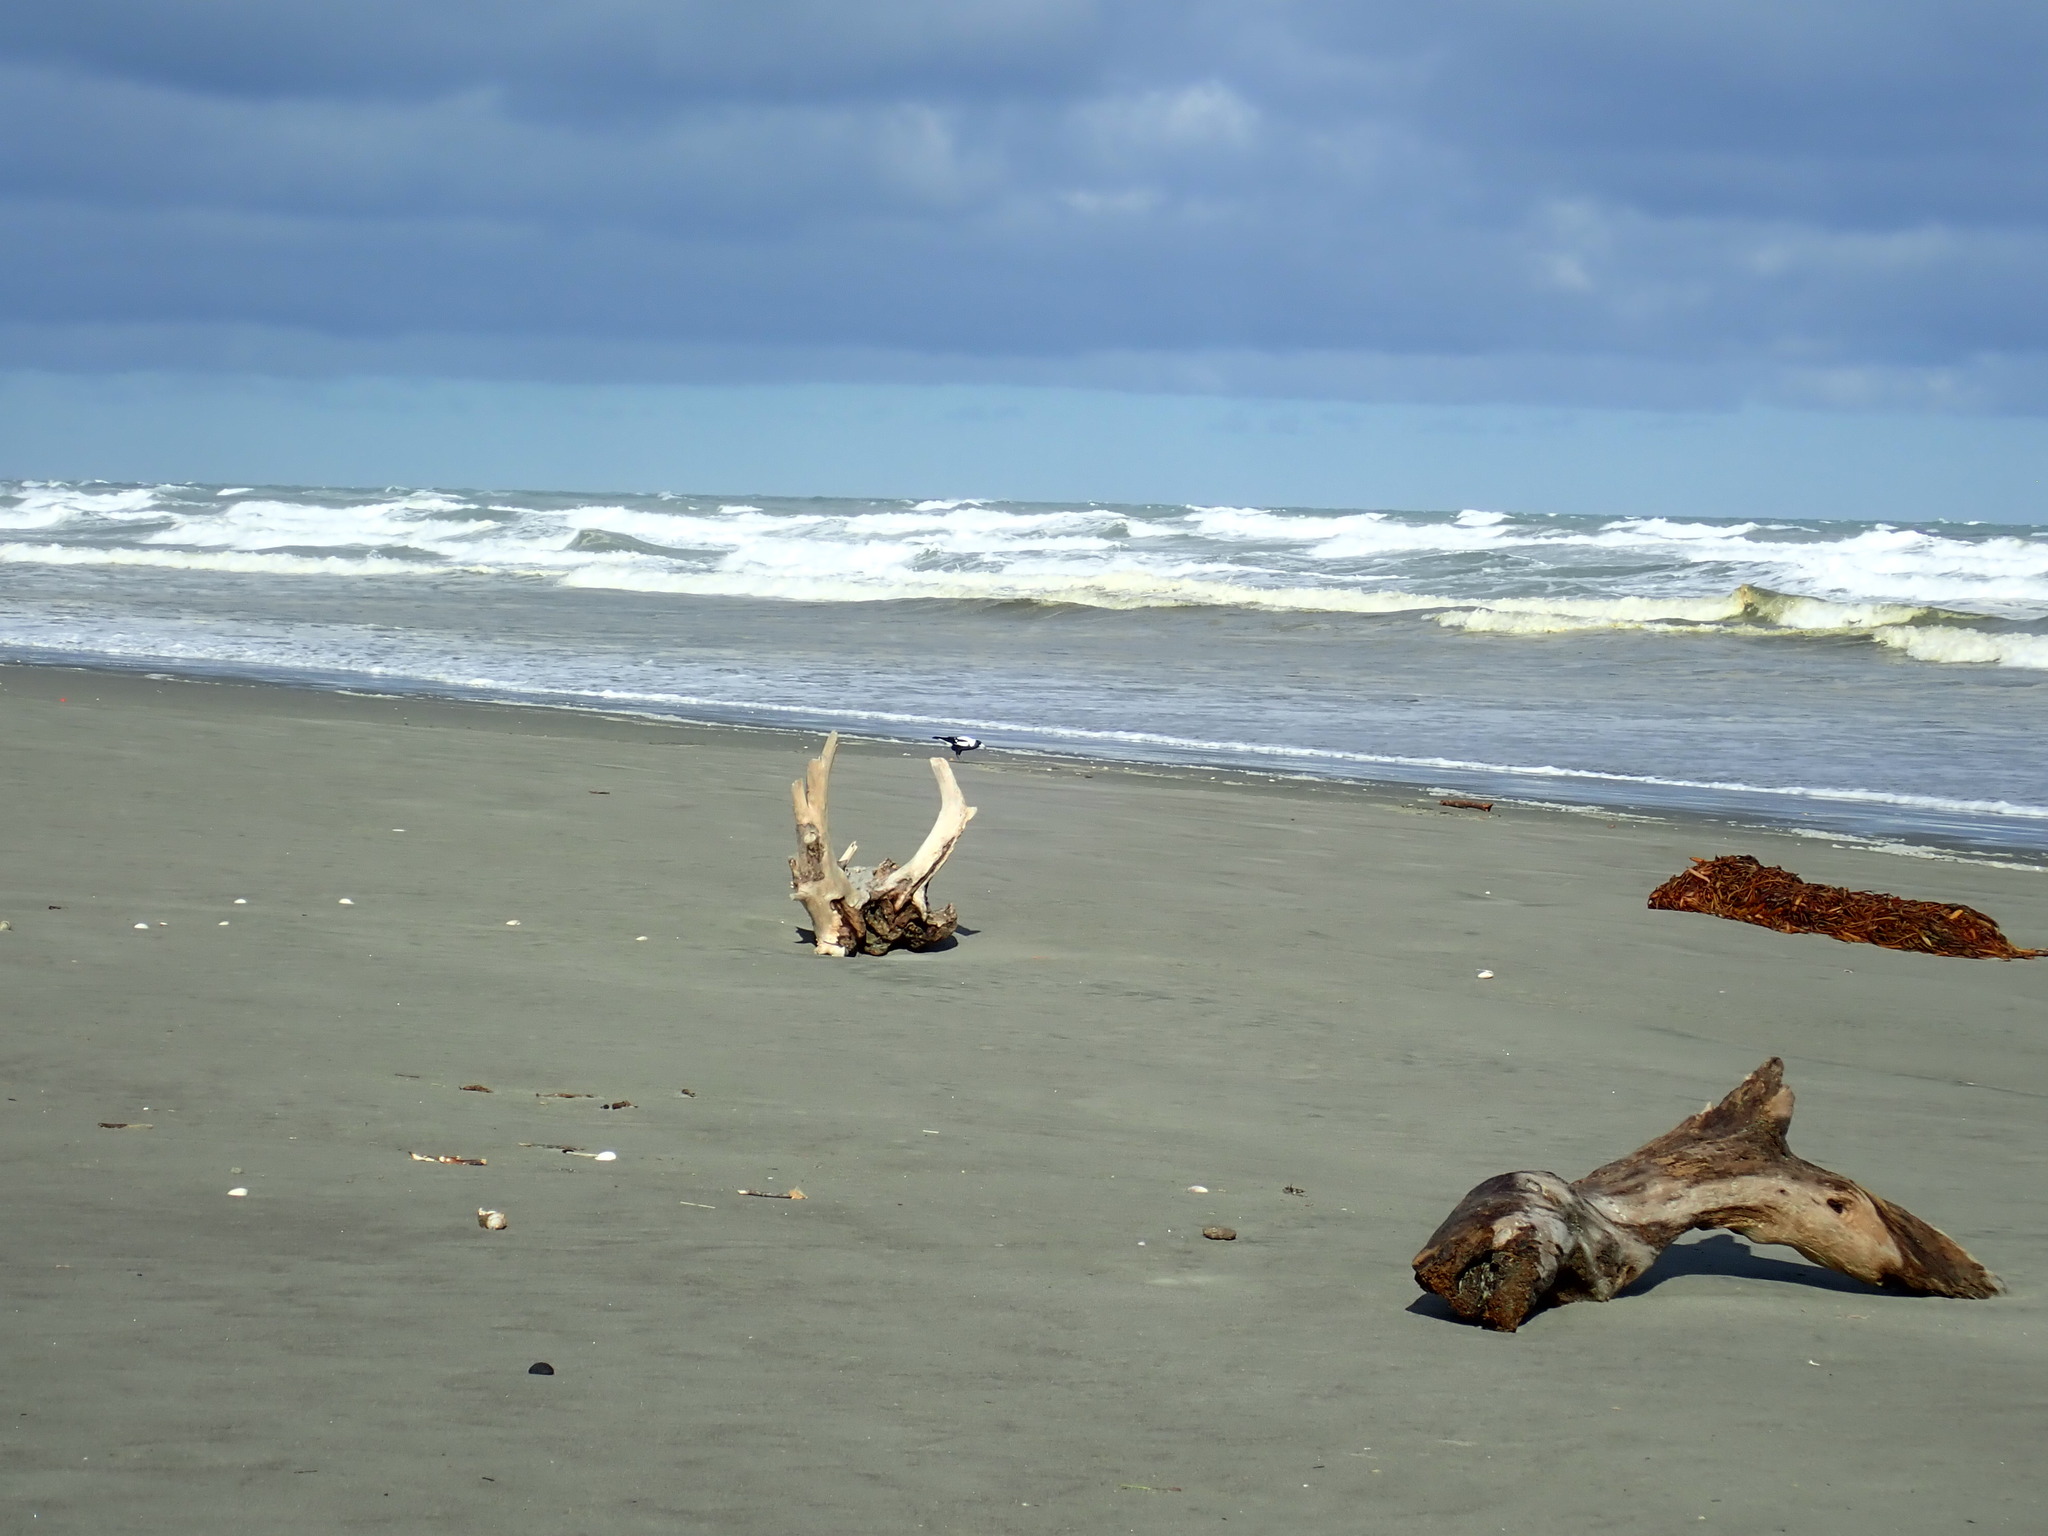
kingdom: Animalia
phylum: Chordata
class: Aves
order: Passeriformes
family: Cracticidae
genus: Gymnorhina
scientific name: Gymnorhina tibicen
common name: Australian magpie
